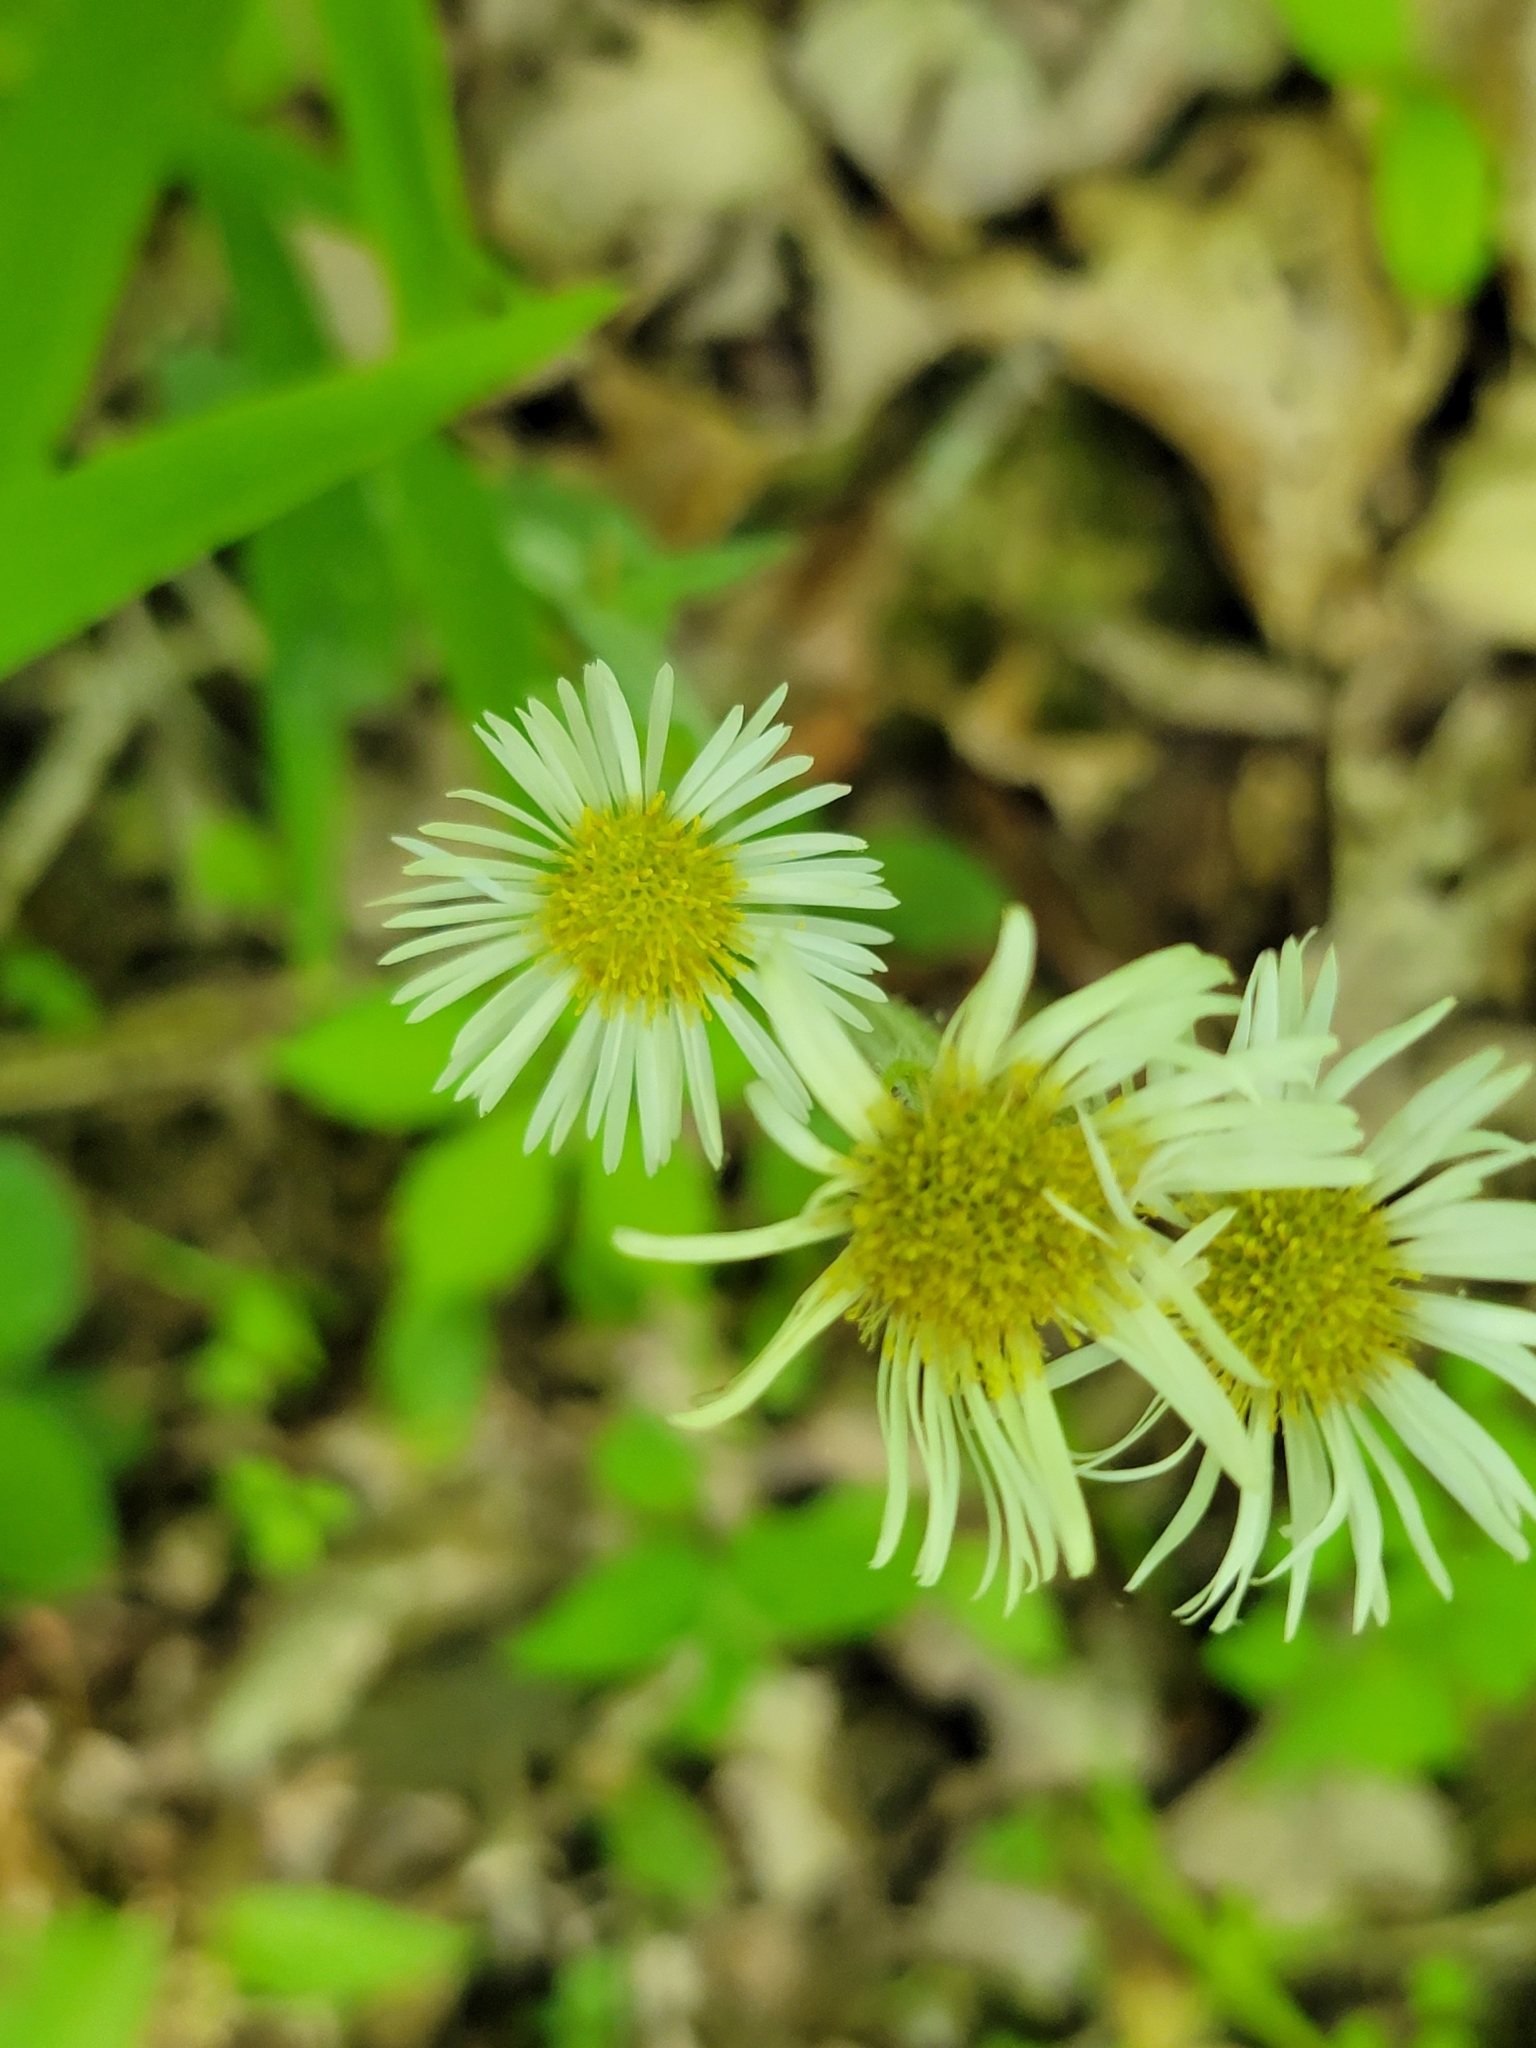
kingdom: Plantae
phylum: Tracheophyta
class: Magnoliopsida
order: Asterales
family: Asteraceae
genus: Erigeron
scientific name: Erigeron pulchellus
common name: Hairy fleabane
